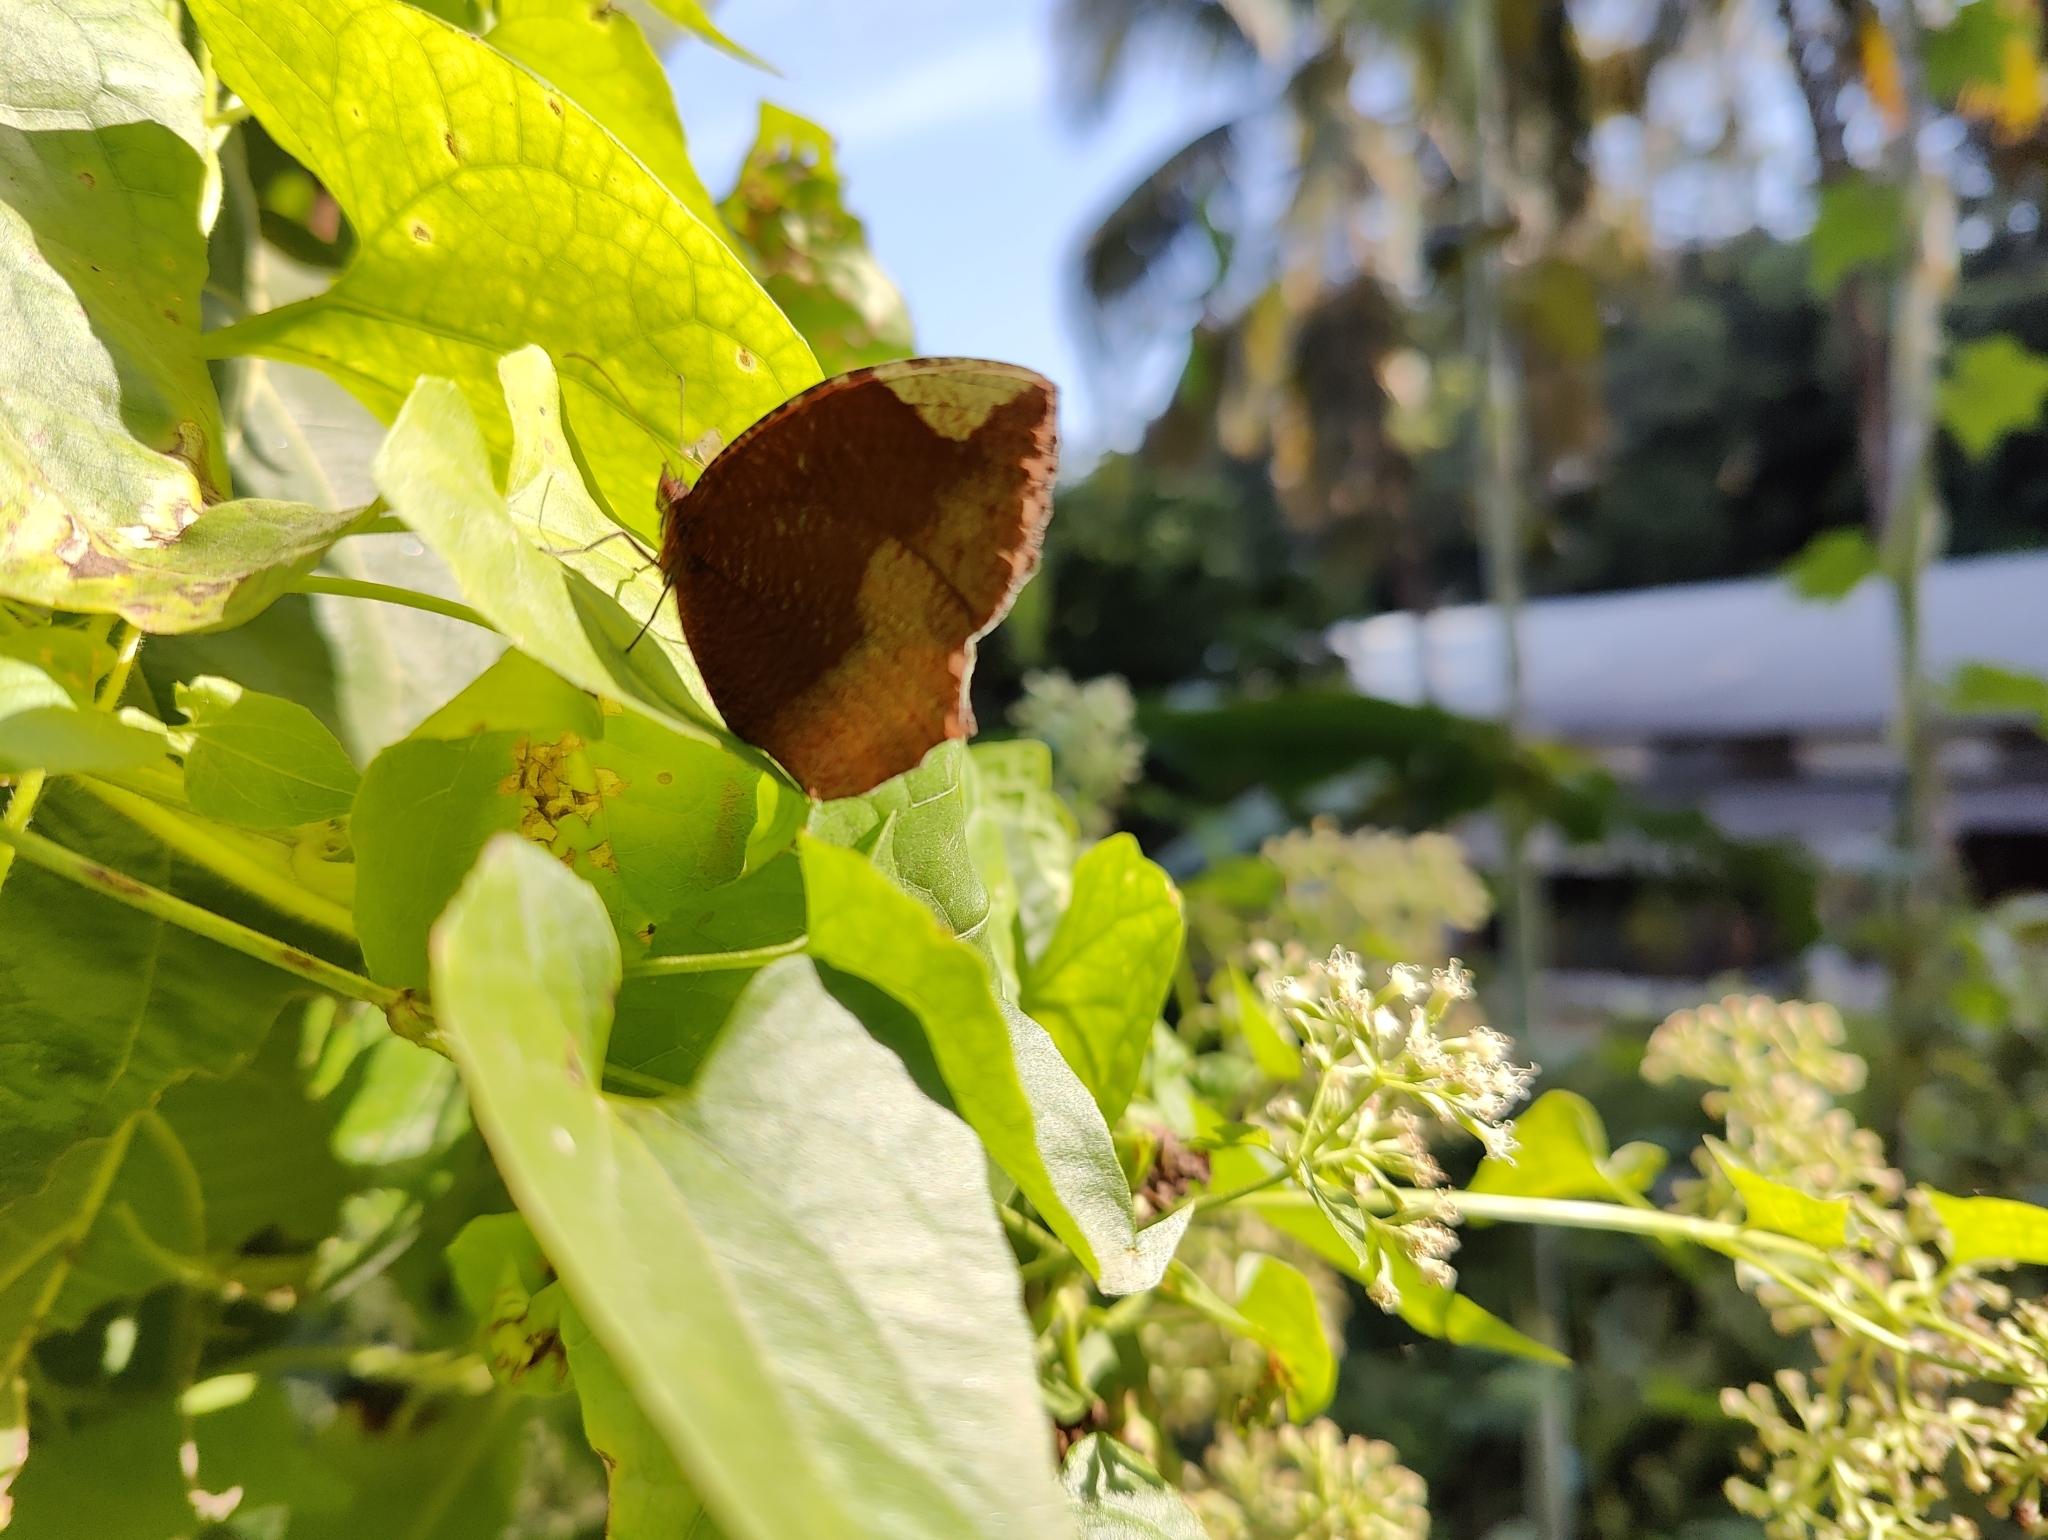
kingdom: Animalia
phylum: Arthropoda
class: Insecta
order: Lepidoptera
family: Nymphalidae
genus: Elymnias
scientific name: Elymnias hypermnestra
